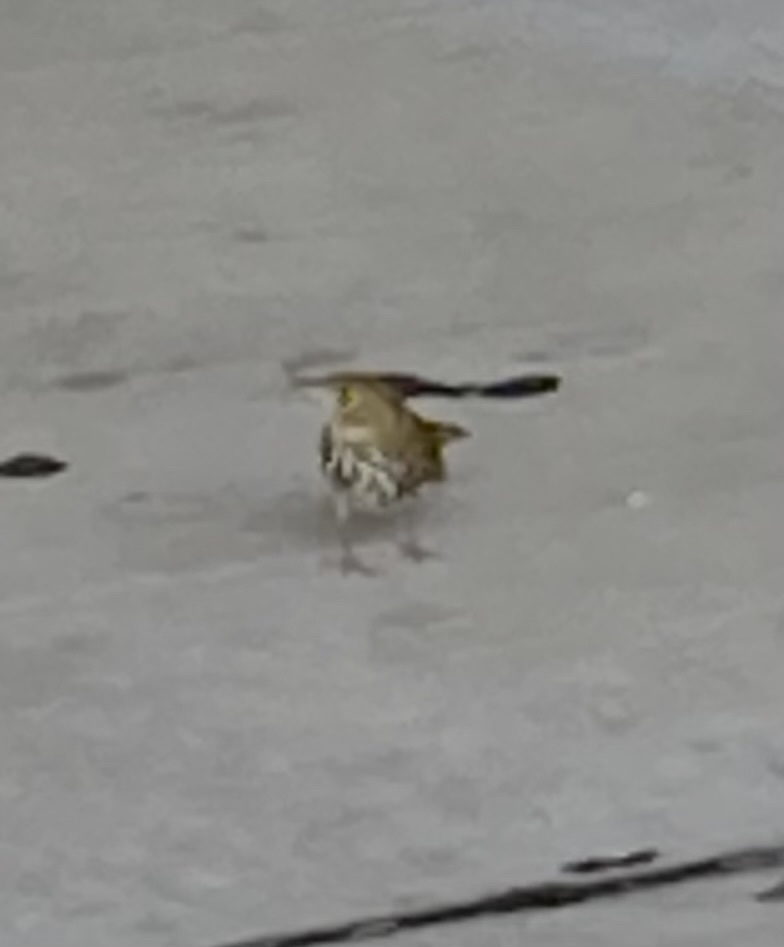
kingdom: Animalia
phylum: Chordata
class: Aves
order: Passeriformes
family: Parulidae
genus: Seiurus
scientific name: Seiurus aurocapilla
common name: Ovenbird
